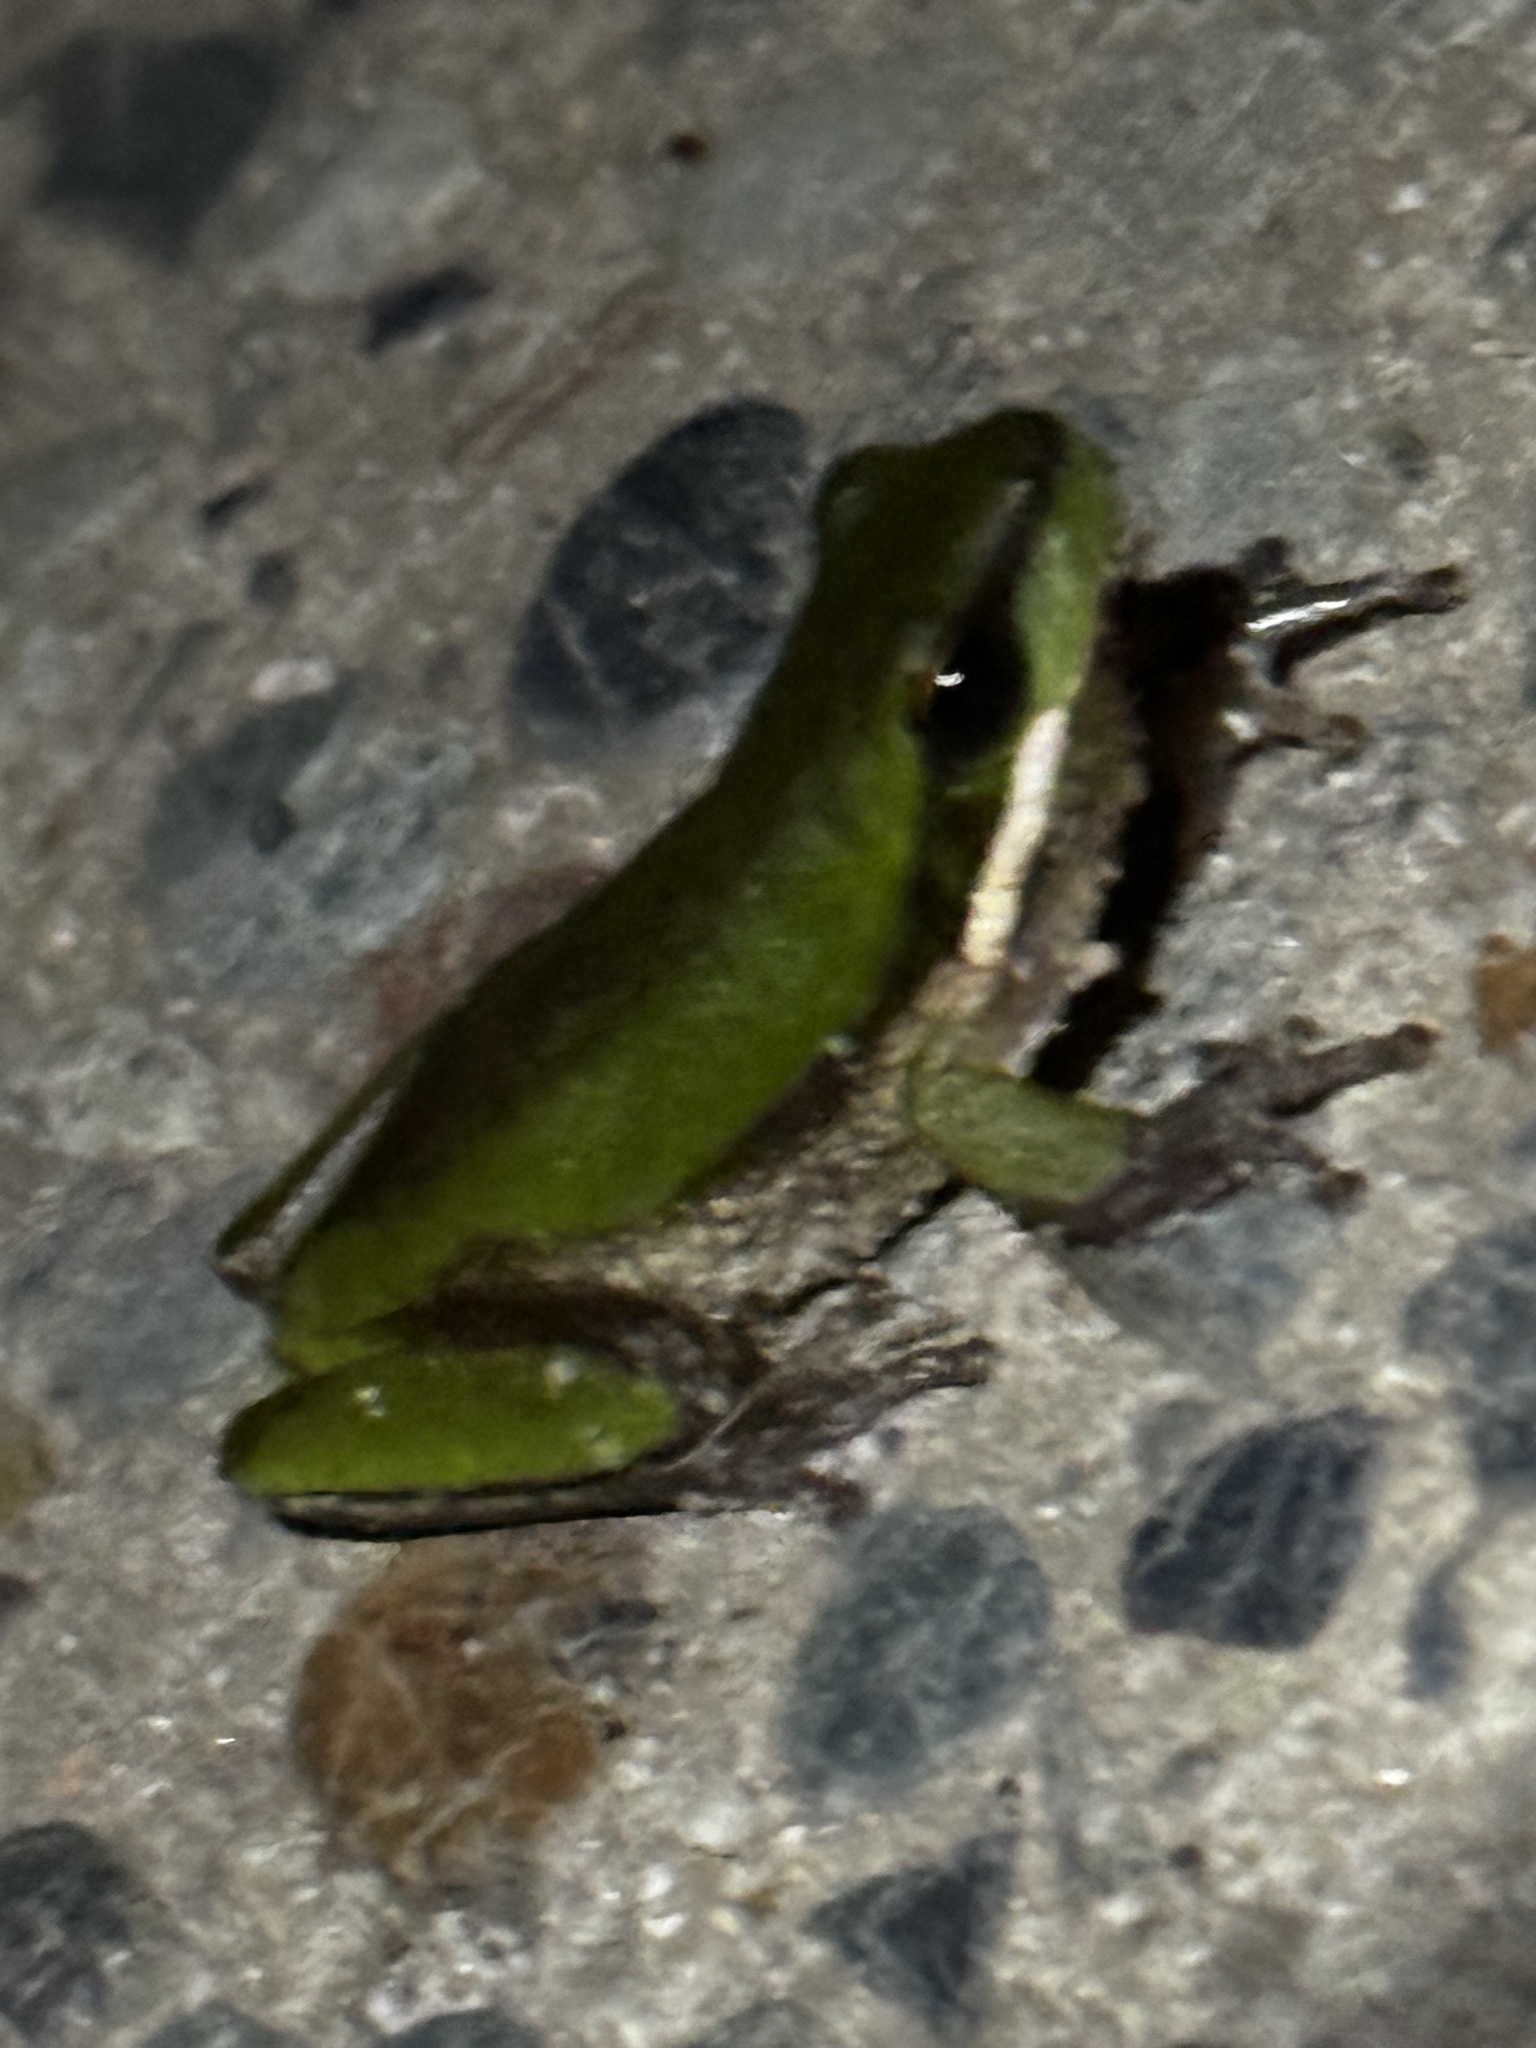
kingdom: Animalia
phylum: Chordata
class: Amphibia
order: Anura
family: Pelodryadidae
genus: Litoria
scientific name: Litoria fallax
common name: Eastern dwarf treefrog
